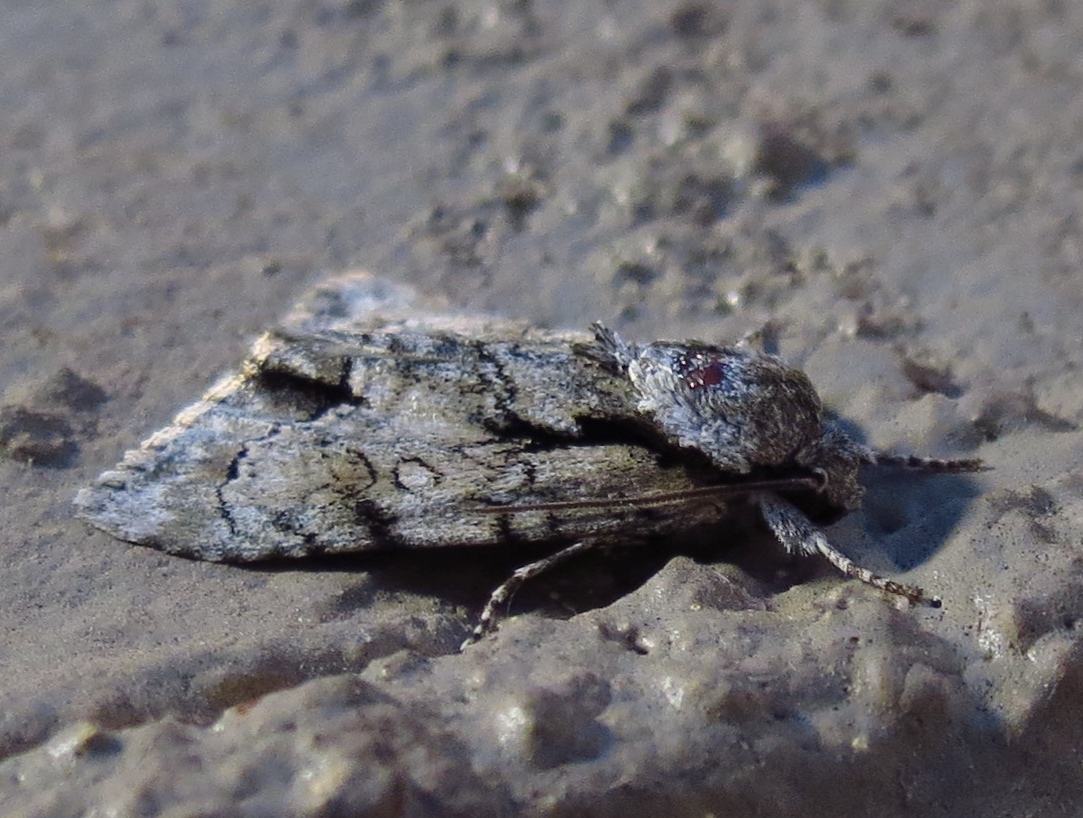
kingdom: Animalia
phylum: Arthropoda
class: Insecta
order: Lepidoptera
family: Noctuidae
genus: Acronicta
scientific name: Acronicta vinnula
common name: Delightful dagger
